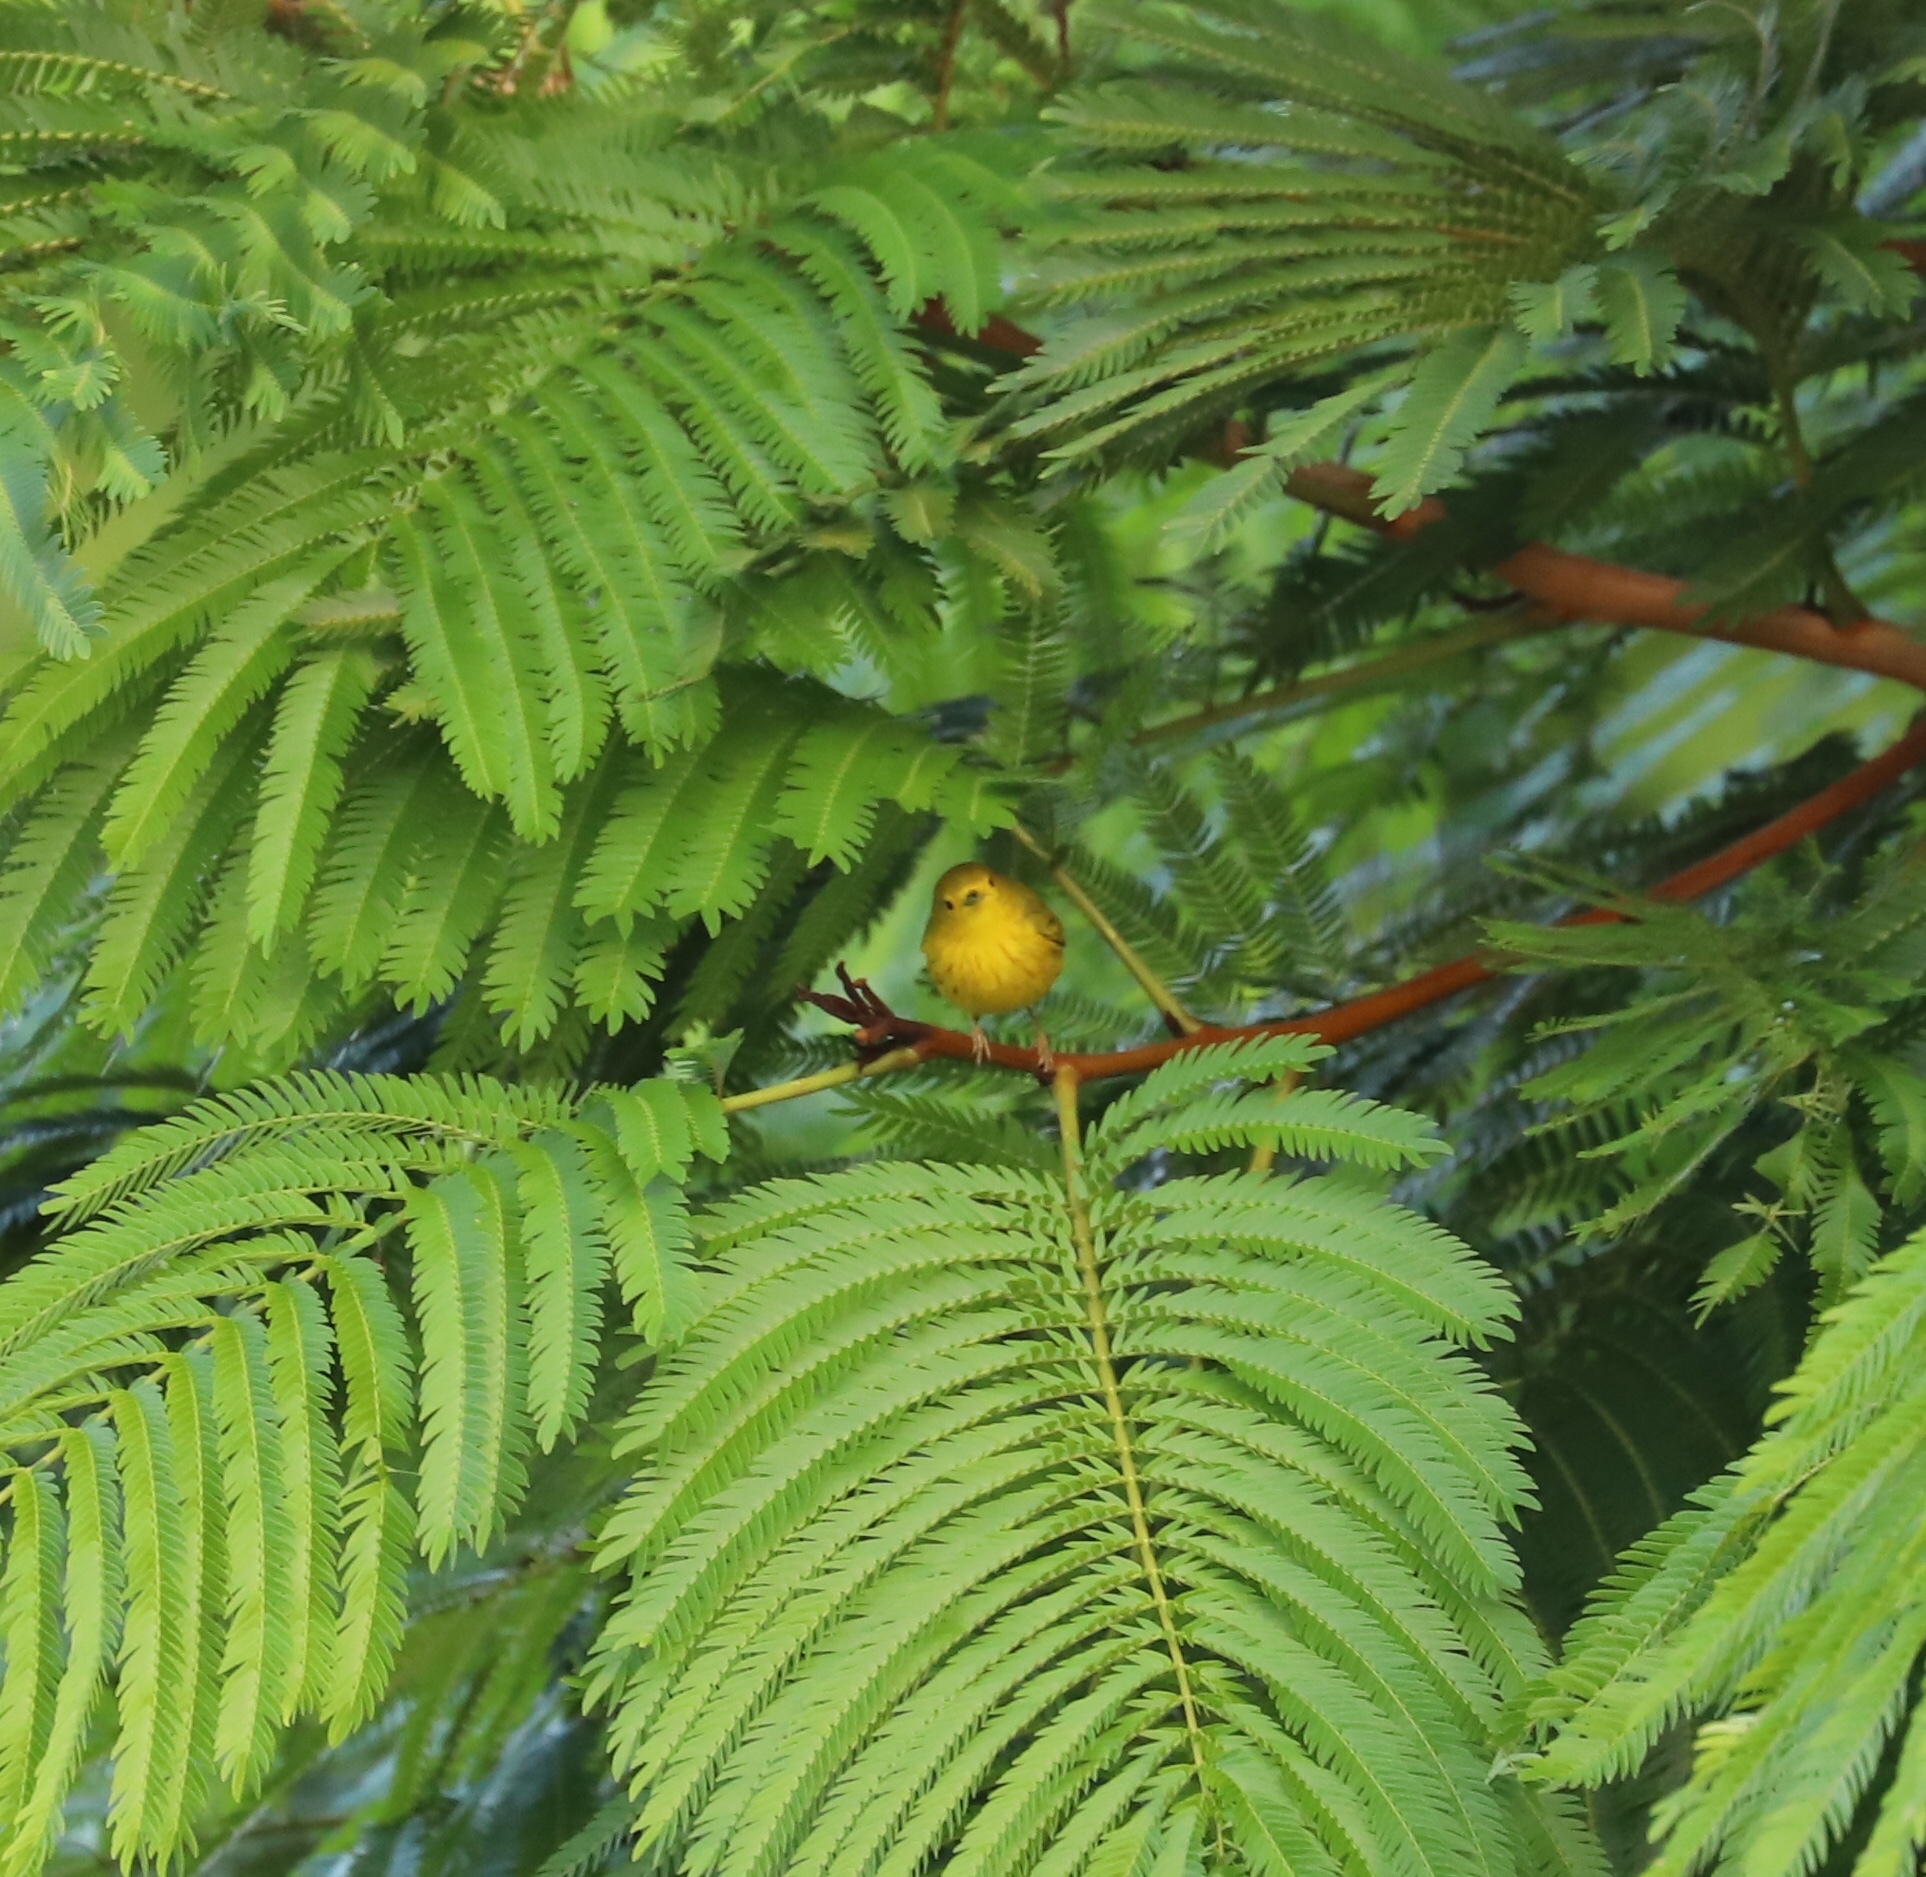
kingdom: Animalia
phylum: Chordata
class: Aves
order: Passeriformes
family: Parulidae
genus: Setophaga
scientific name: Setophaga petechia
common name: Yellow warbler
